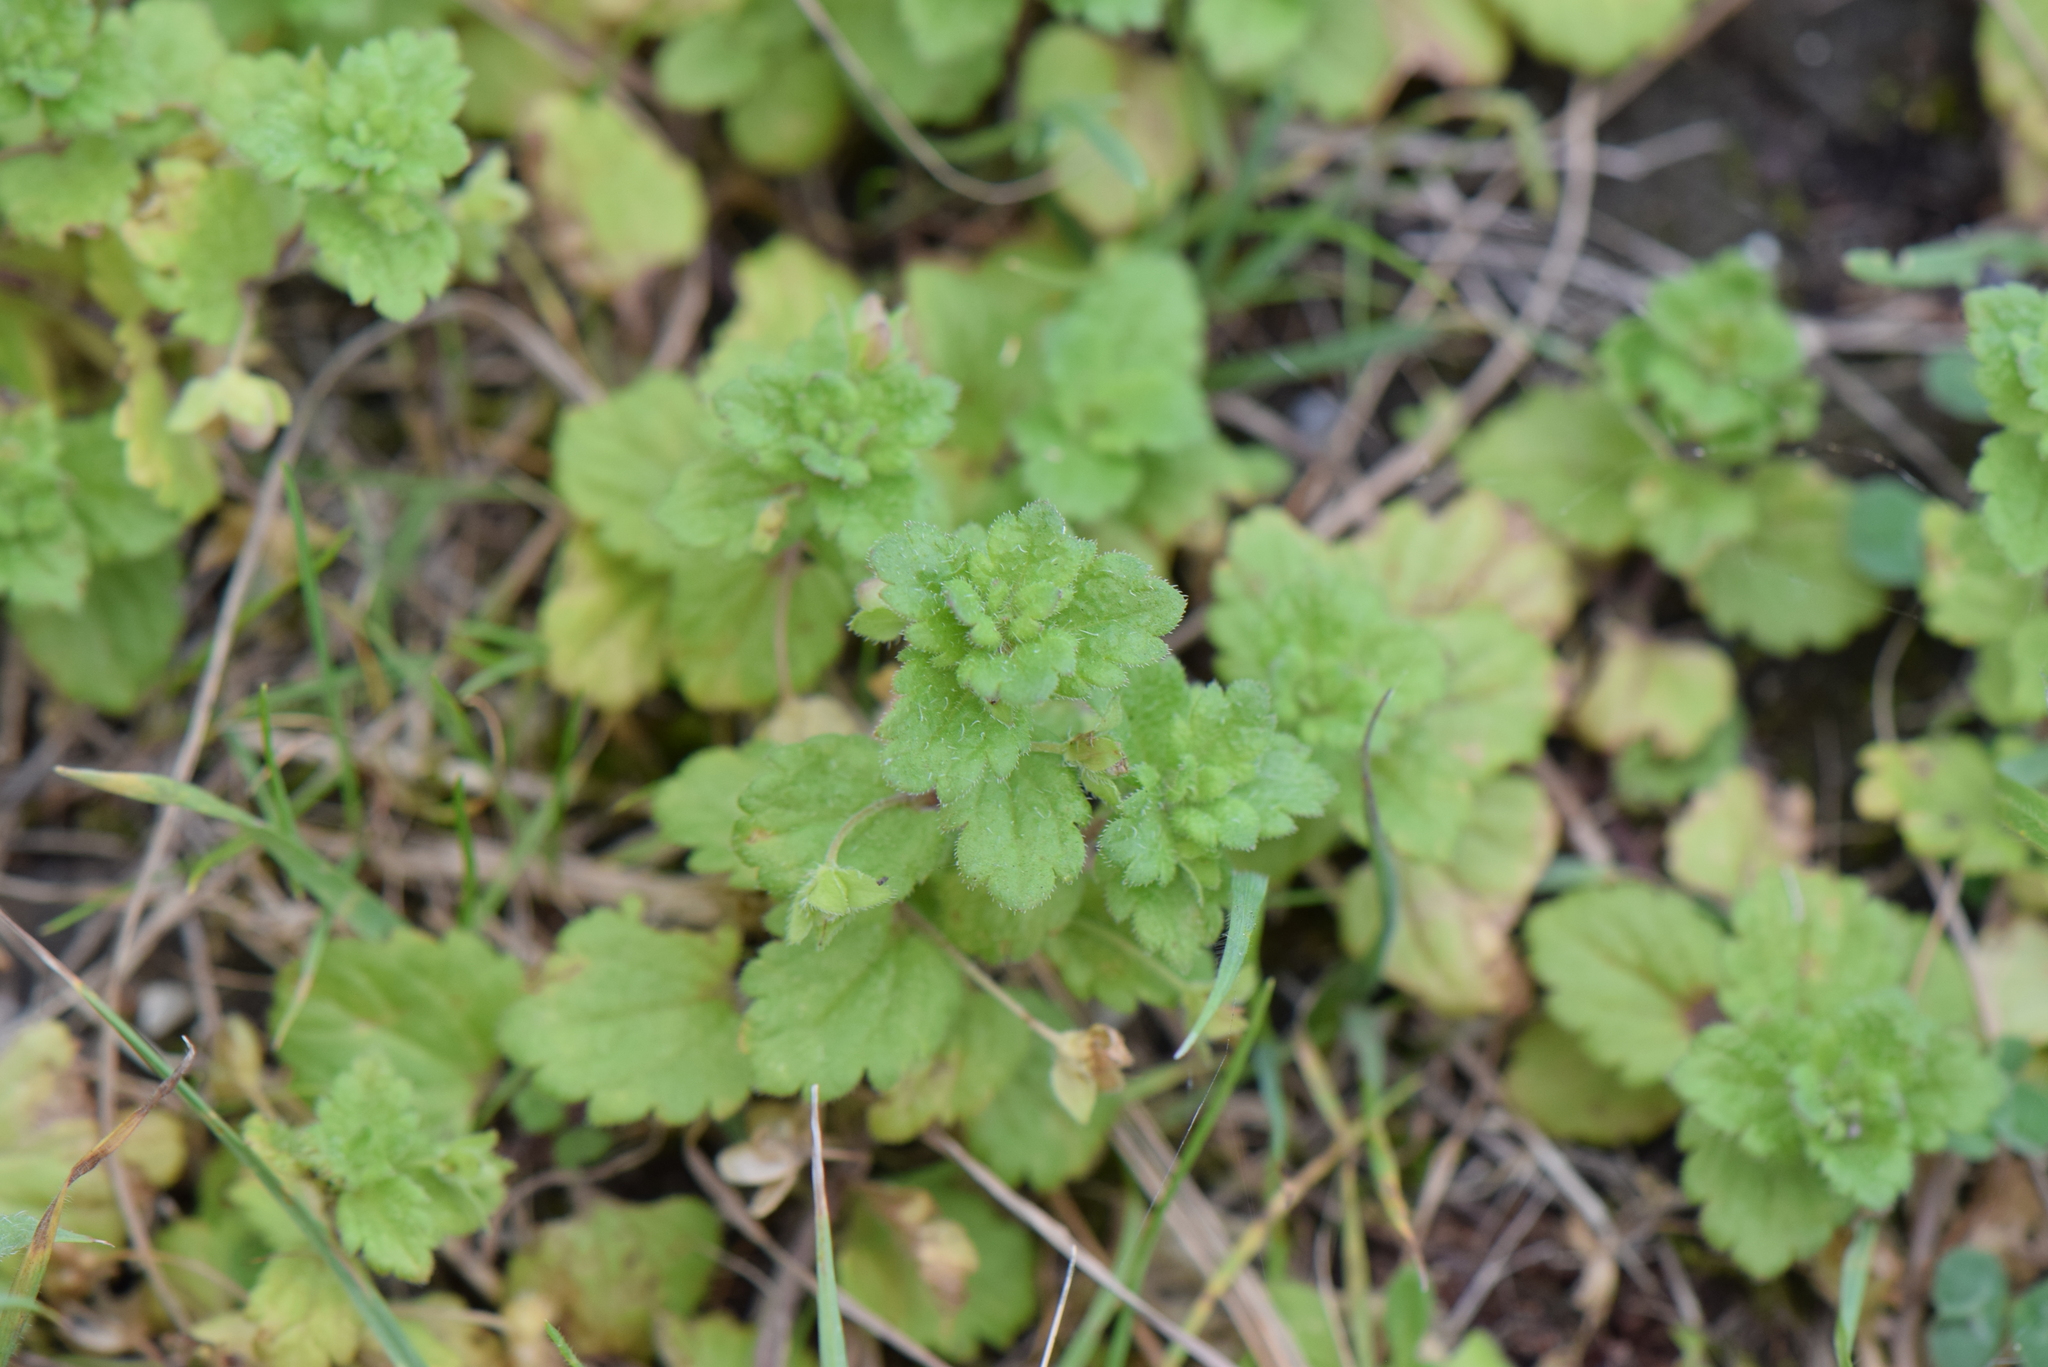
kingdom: Plantae
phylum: Tracheophyta
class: Magnoliopsida
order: Lamiales
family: Plantaginaceae
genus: Veronica
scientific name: Veronica persica
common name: Common field-speedwell
